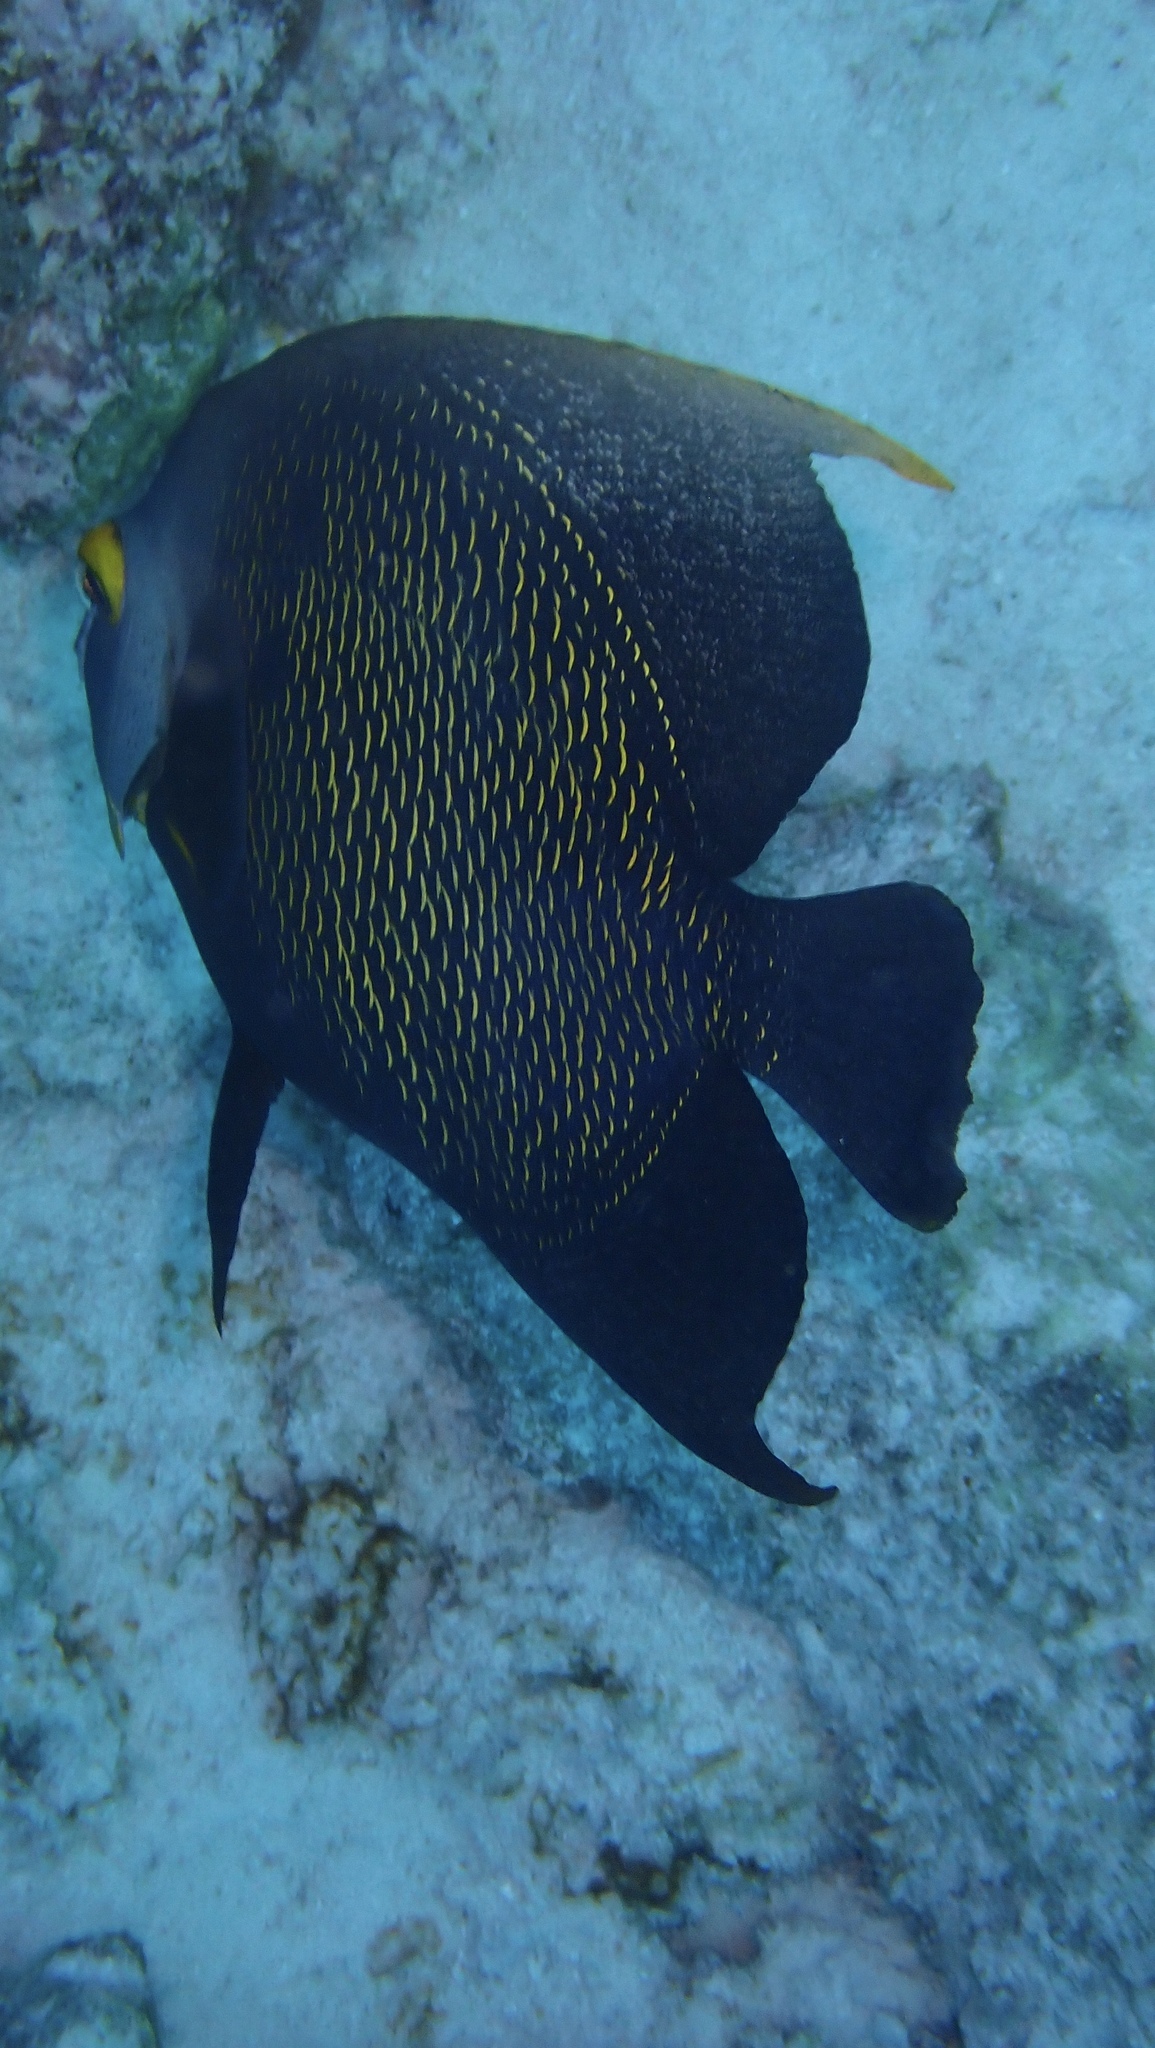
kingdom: Animalia
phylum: Chordata
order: Perciformes
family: Pomacanthidae
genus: Pomacanthus
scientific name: Pomacanthus paru
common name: French angelfish
